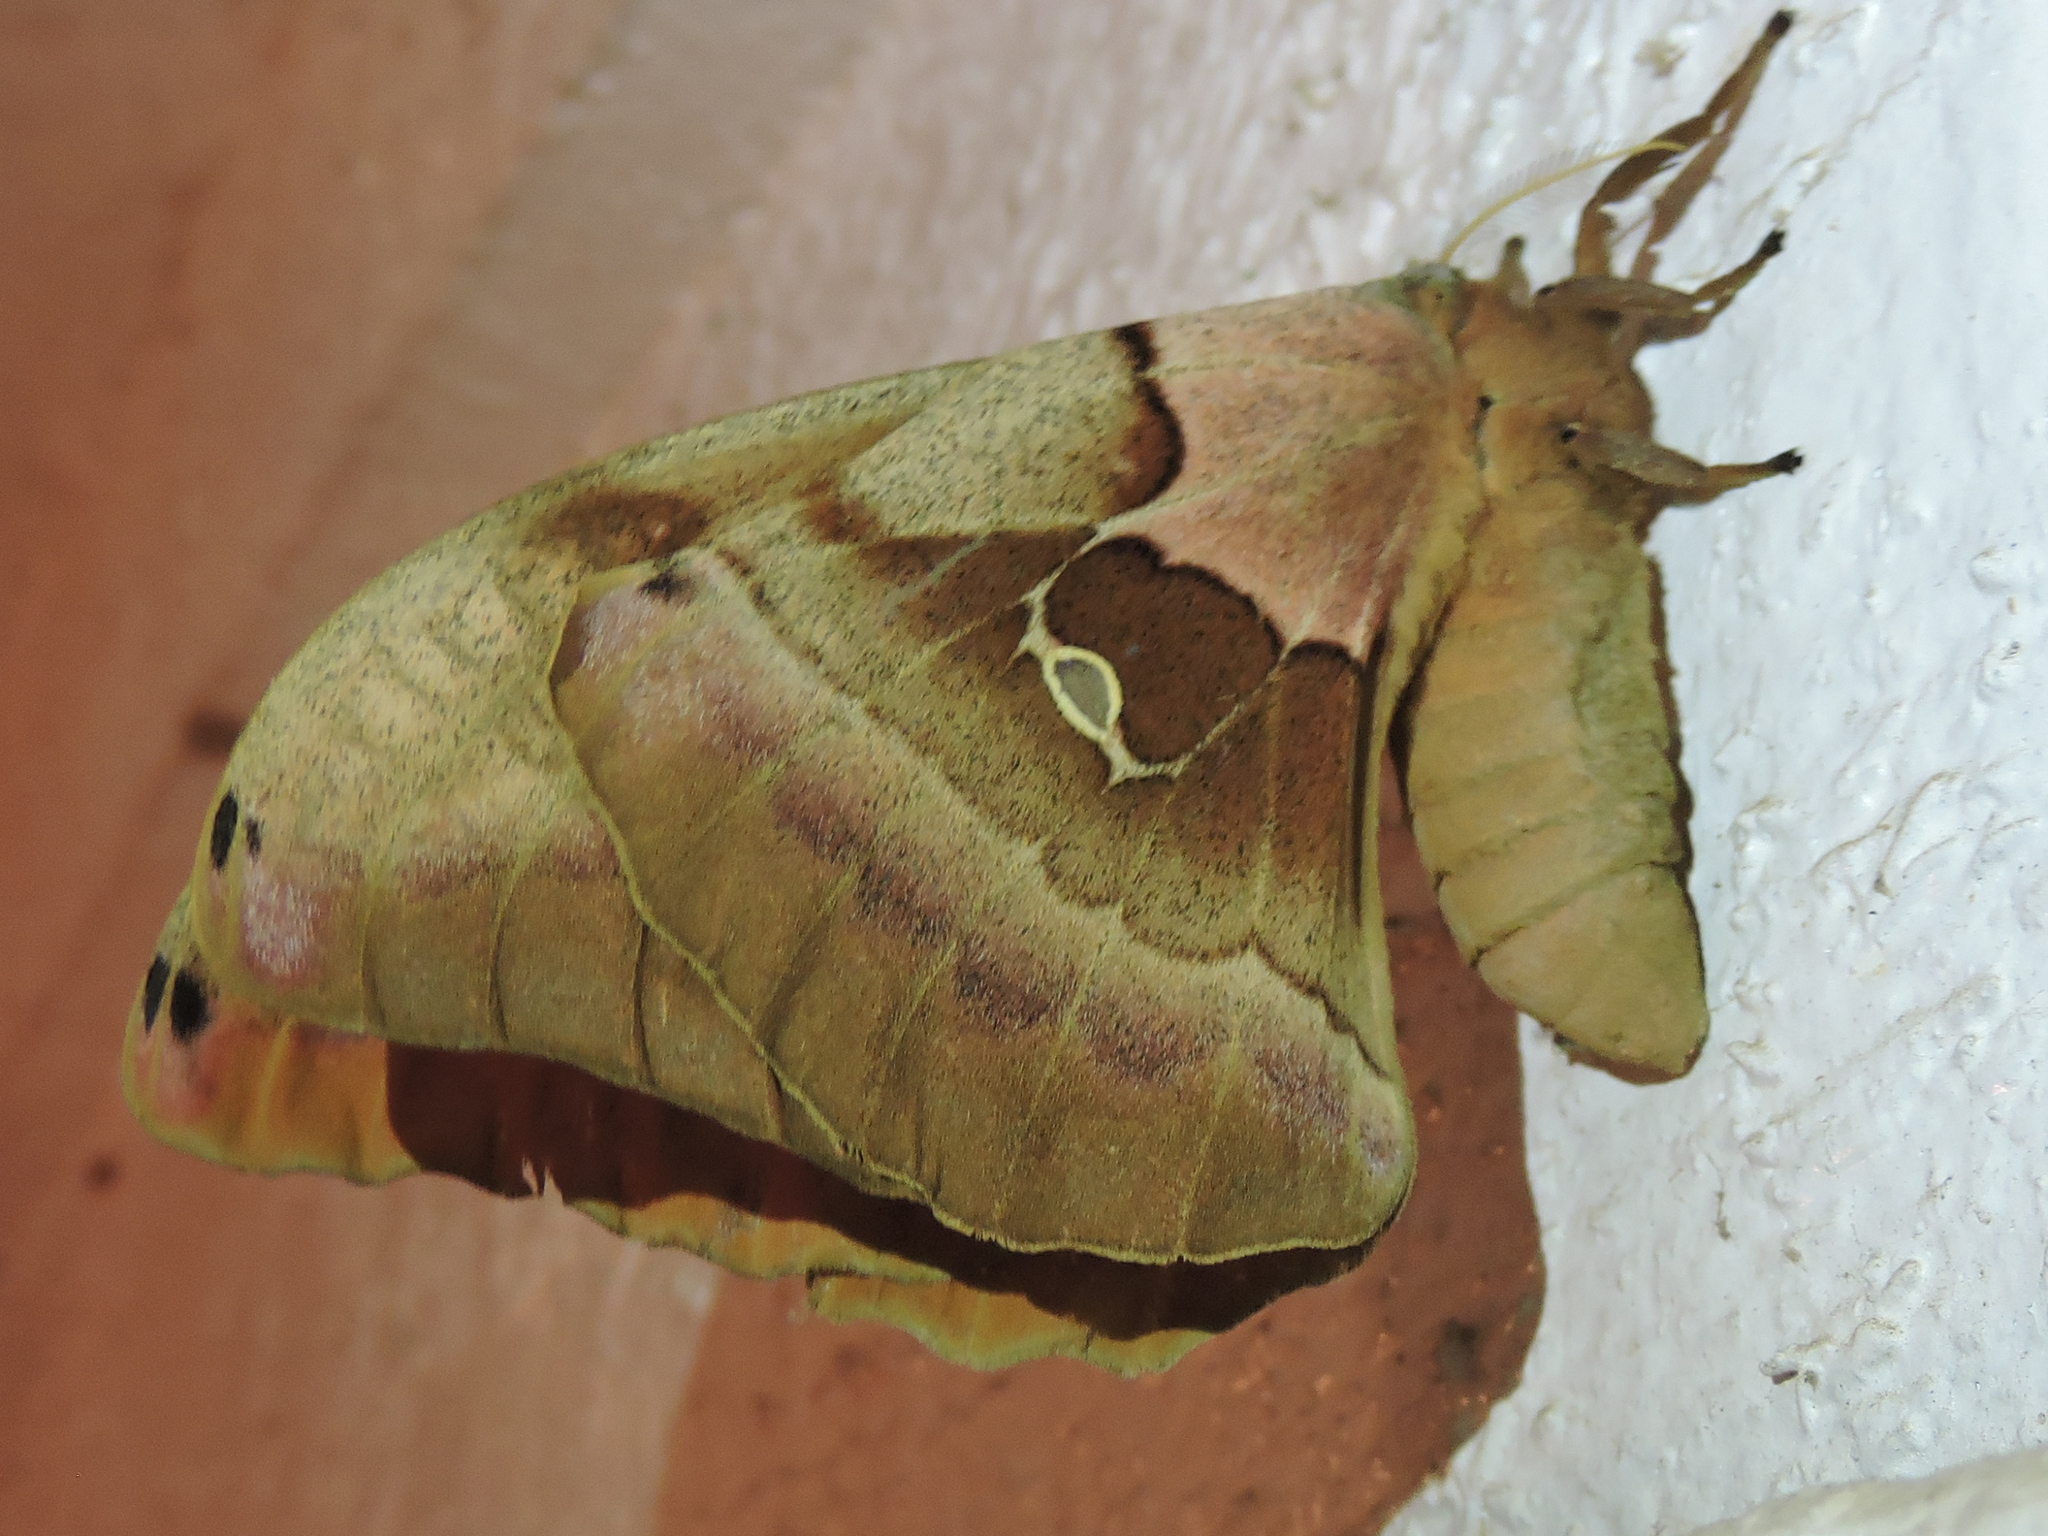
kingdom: Animalia
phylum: Arthropoda
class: Insecta
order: Lepidoptera
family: Saturniidae
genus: Antheraea
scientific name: Antheraea polyphemus
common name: Polyphemus moth
